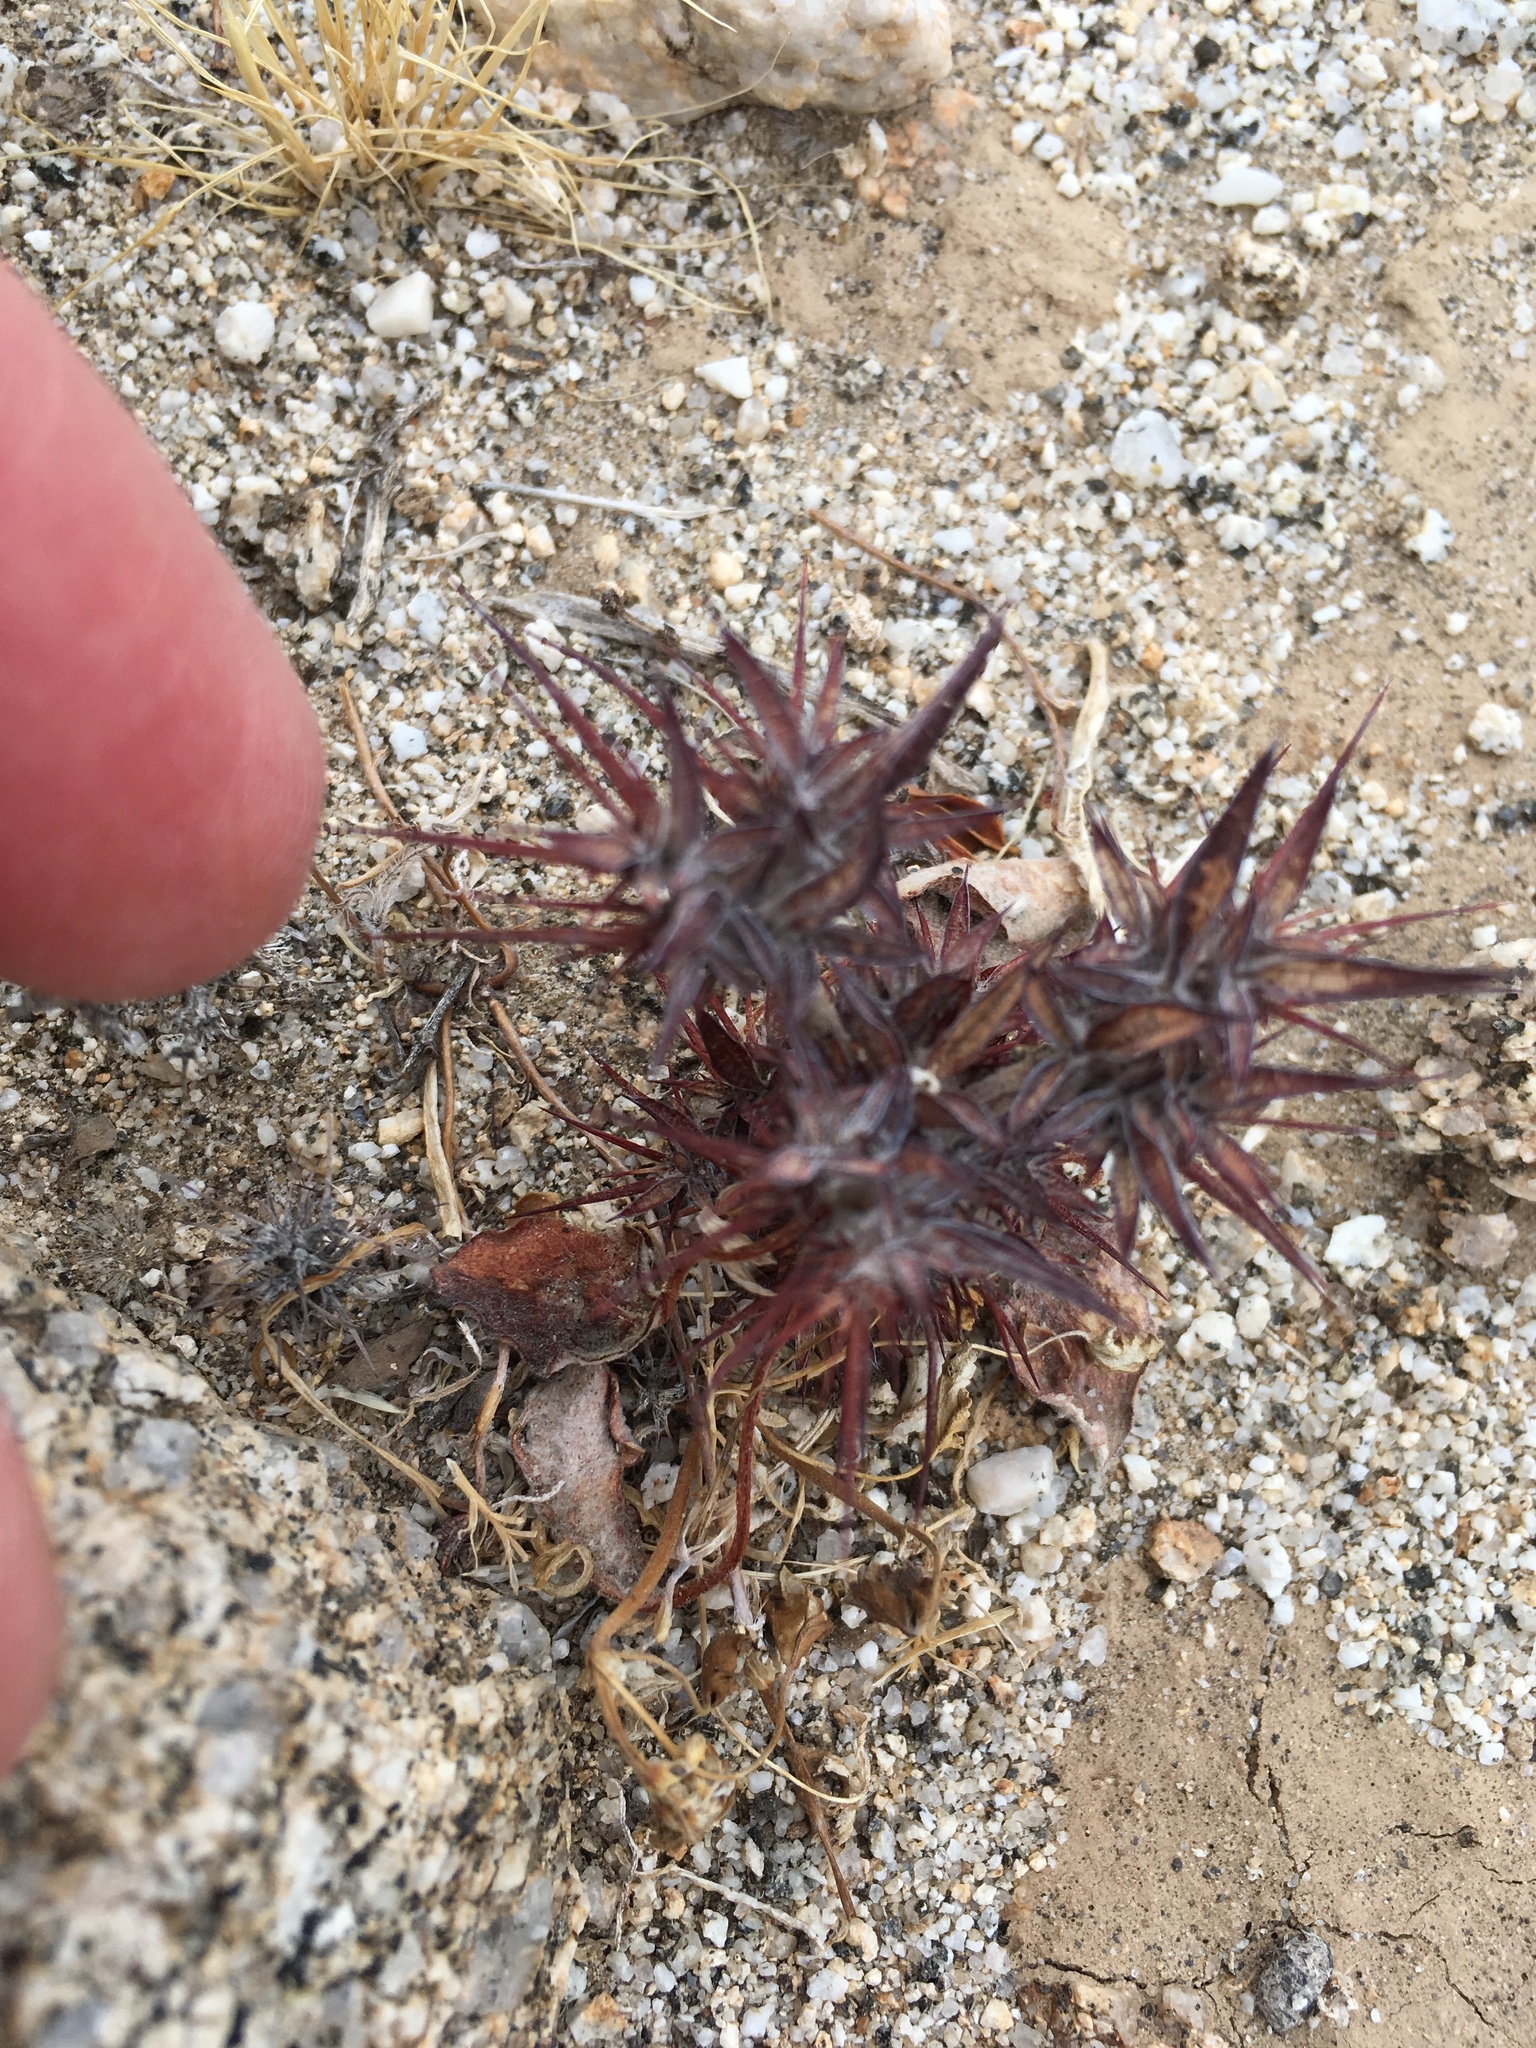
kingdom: Plantae
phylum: Tracheophyta
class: Magnoliopsida
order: Caryophyllales
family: Polygonaceae
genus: Chorizanthe
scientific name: Chorizanthe rigida
